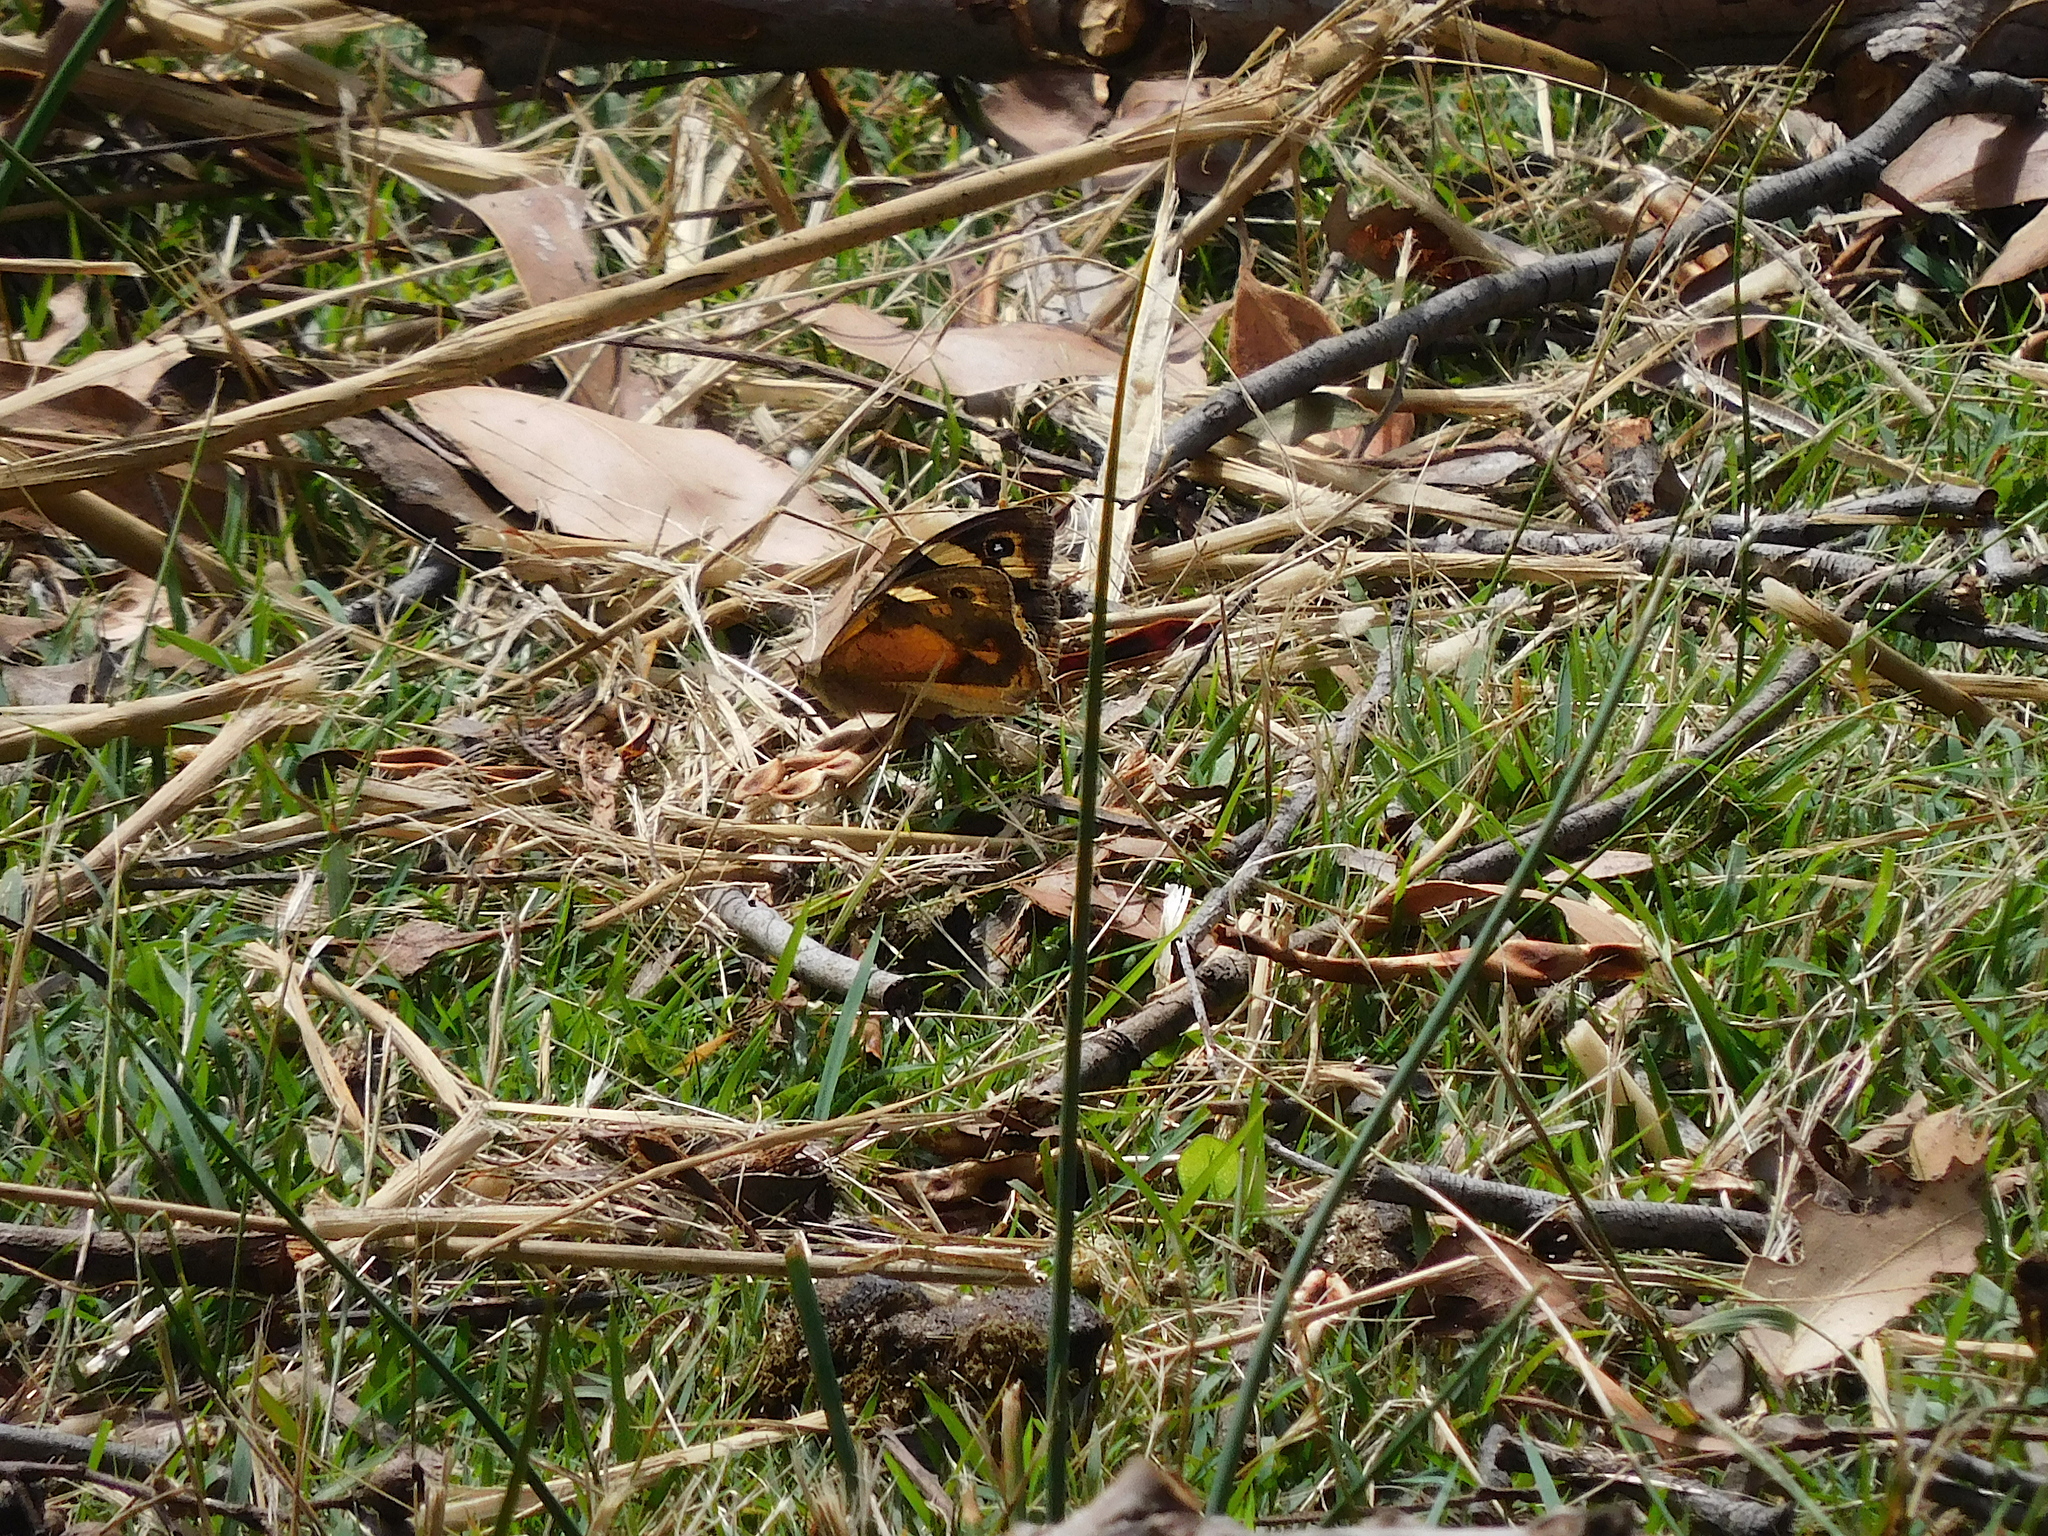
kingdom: Animalia
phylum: Arthropoda
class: Insecta
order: Lepidoptera
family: Nymphalidae
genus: Heteronympha
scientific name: Heteronympha merope
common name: Common brown
